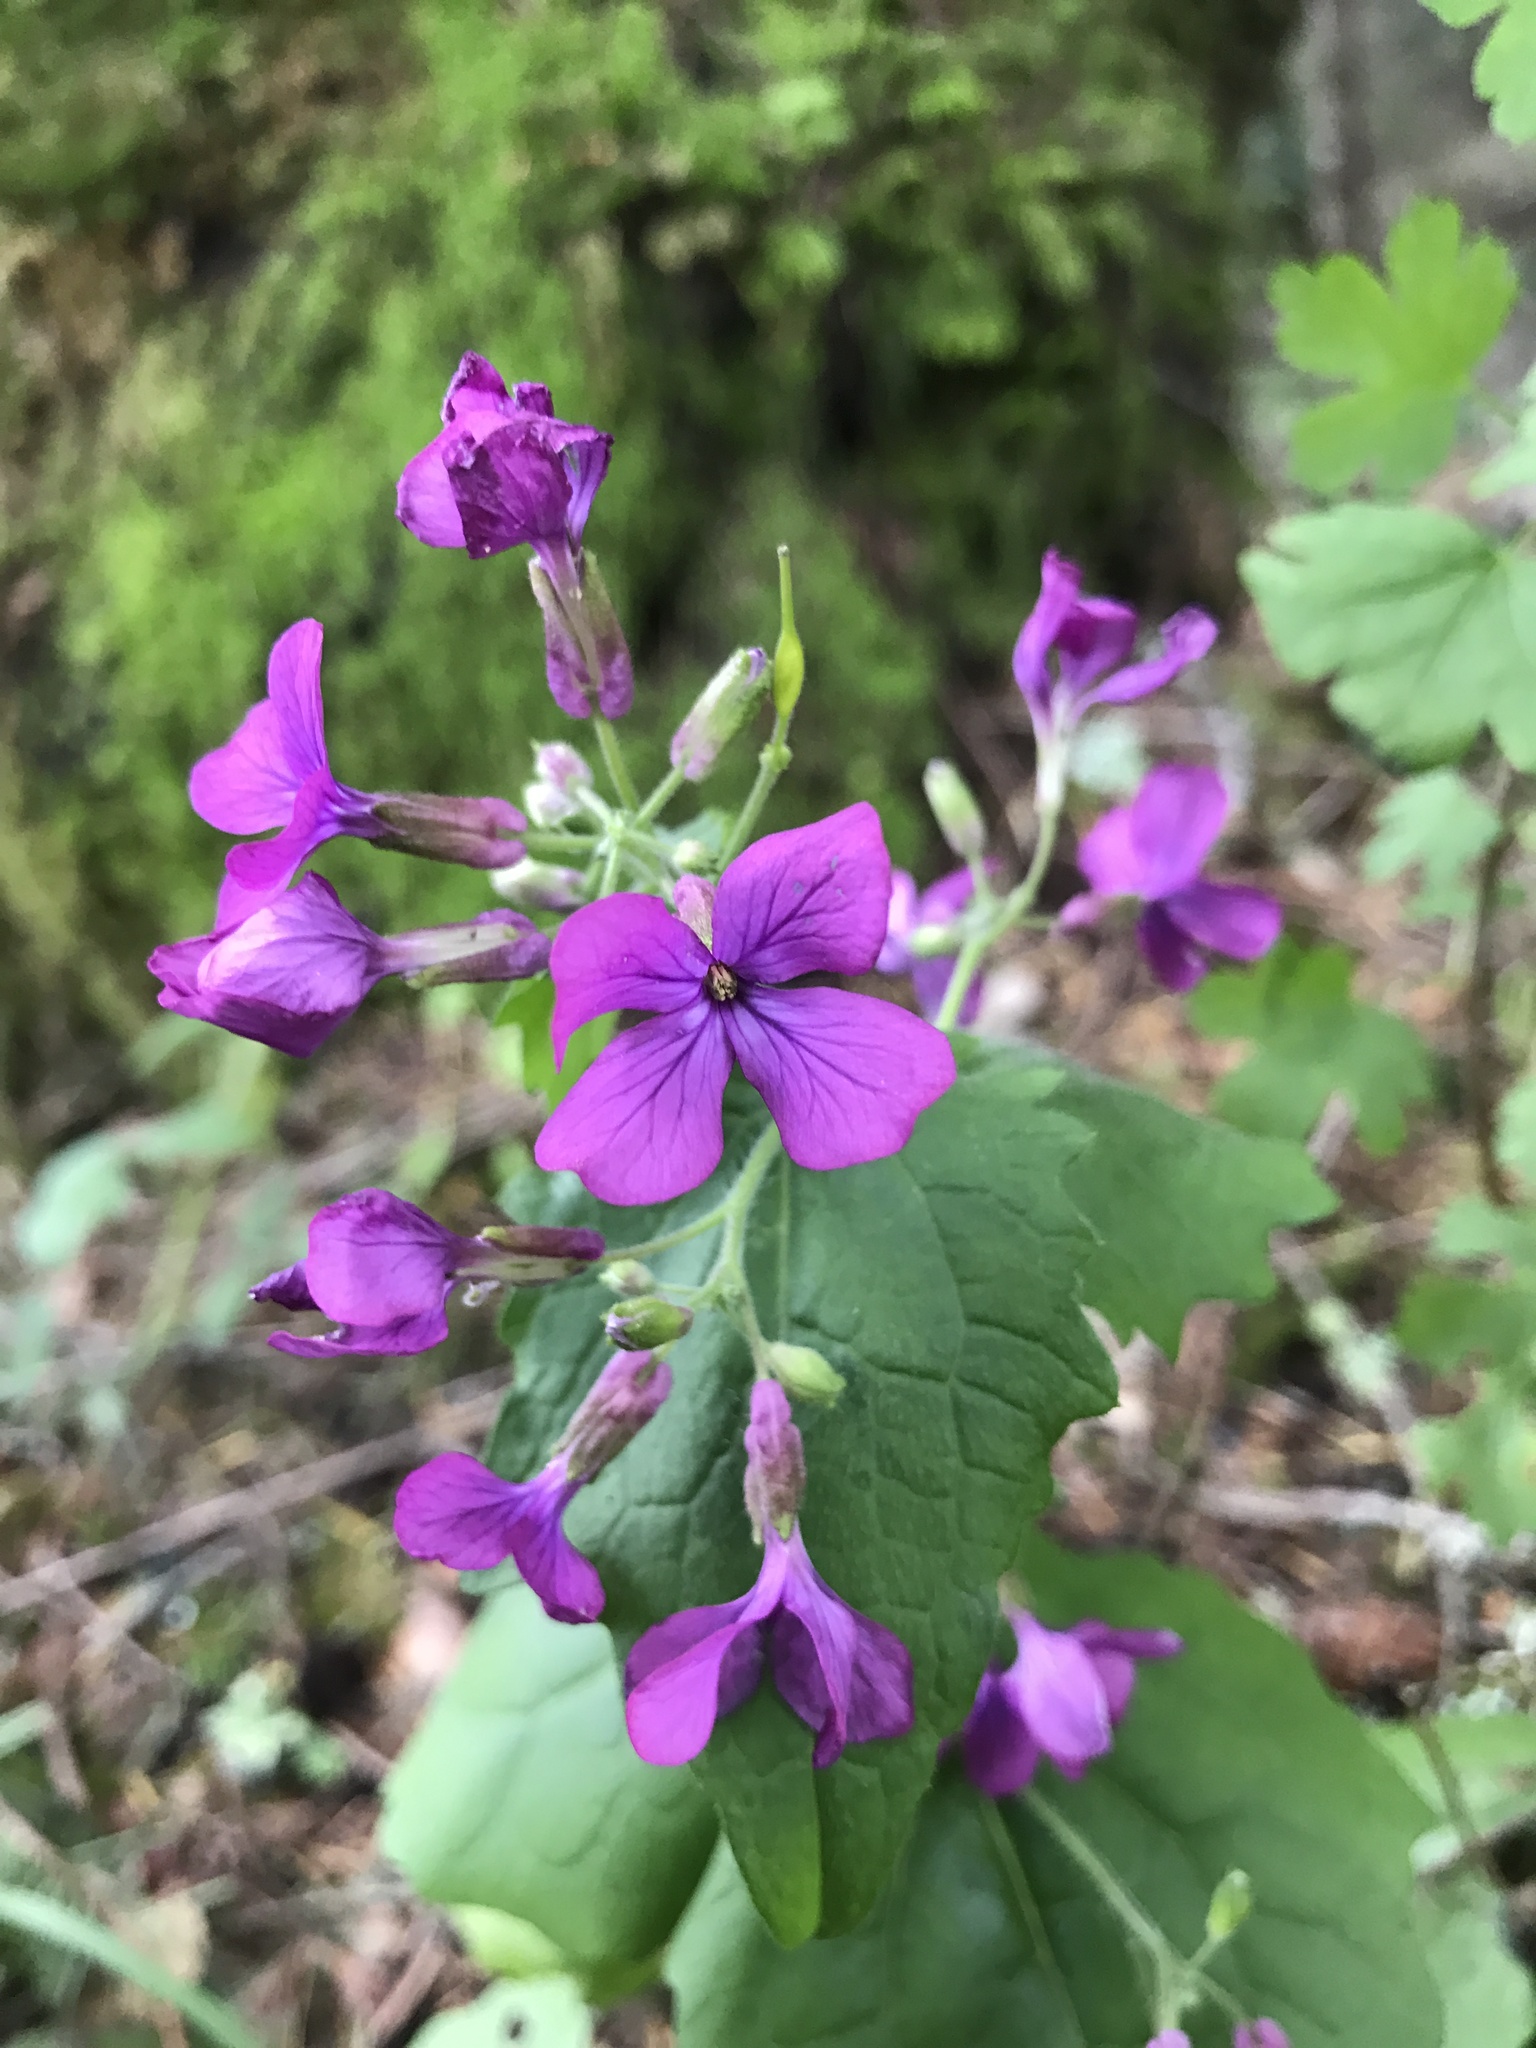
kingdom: Plantae
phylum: Tracheophyta
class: Magnoliopsida
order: Brassicales
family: Brassicaceae
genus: Lunaria
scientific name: Lunaria annua
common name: Honesty
